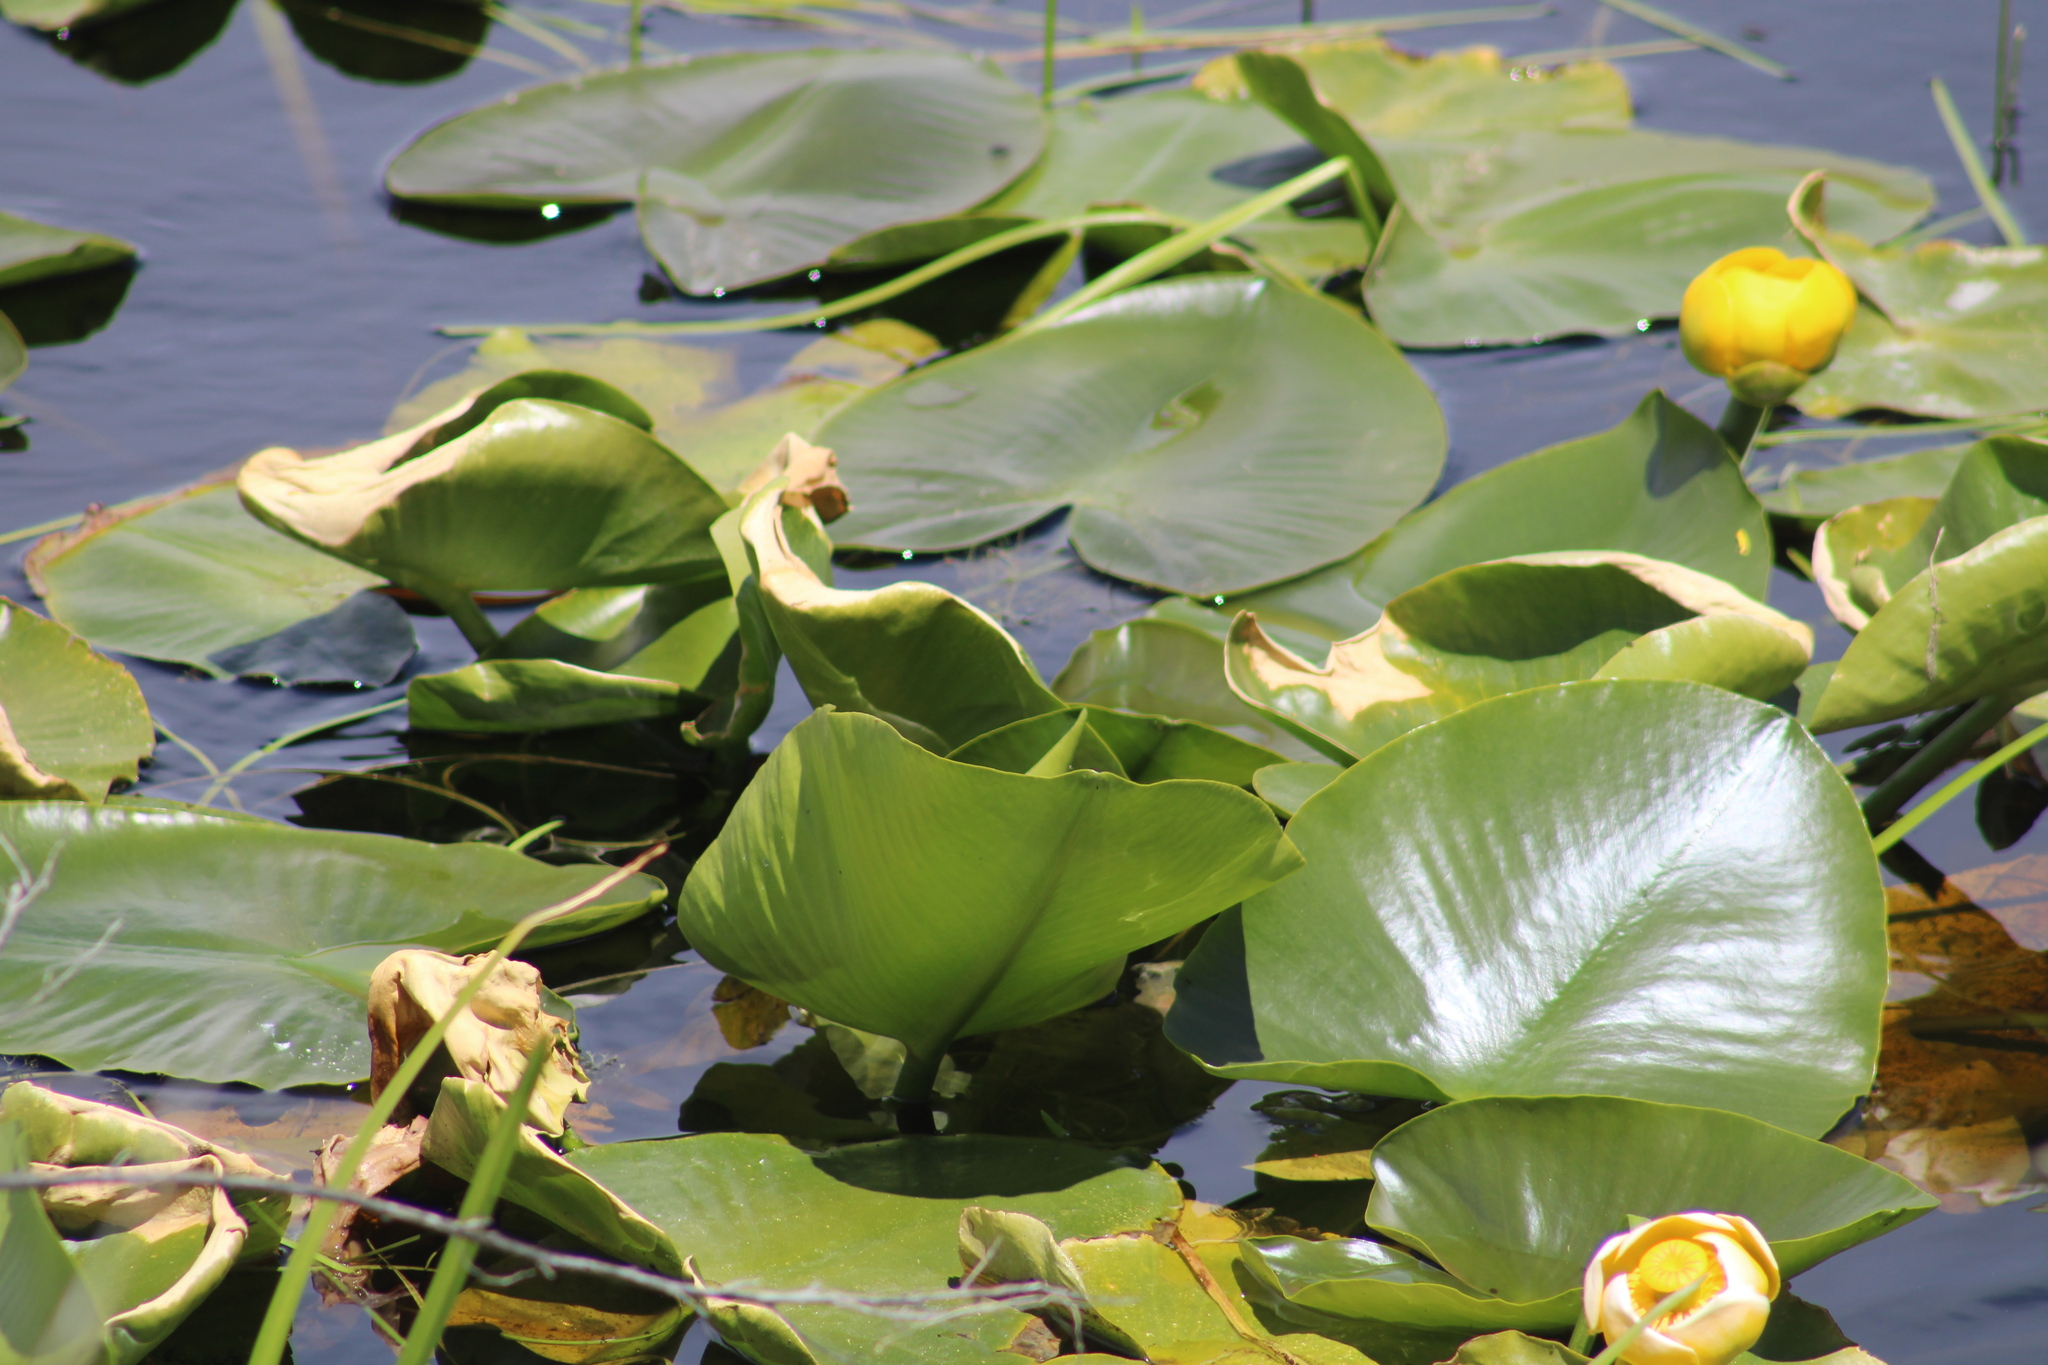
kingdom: Plantae
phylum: Tracheophyta
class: Magnoliopsida
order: Nymphaeales
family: Nymphaeaceae
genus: Nuphar
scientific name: Nuphar polysepala
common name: Rocky mountain cow-lily
